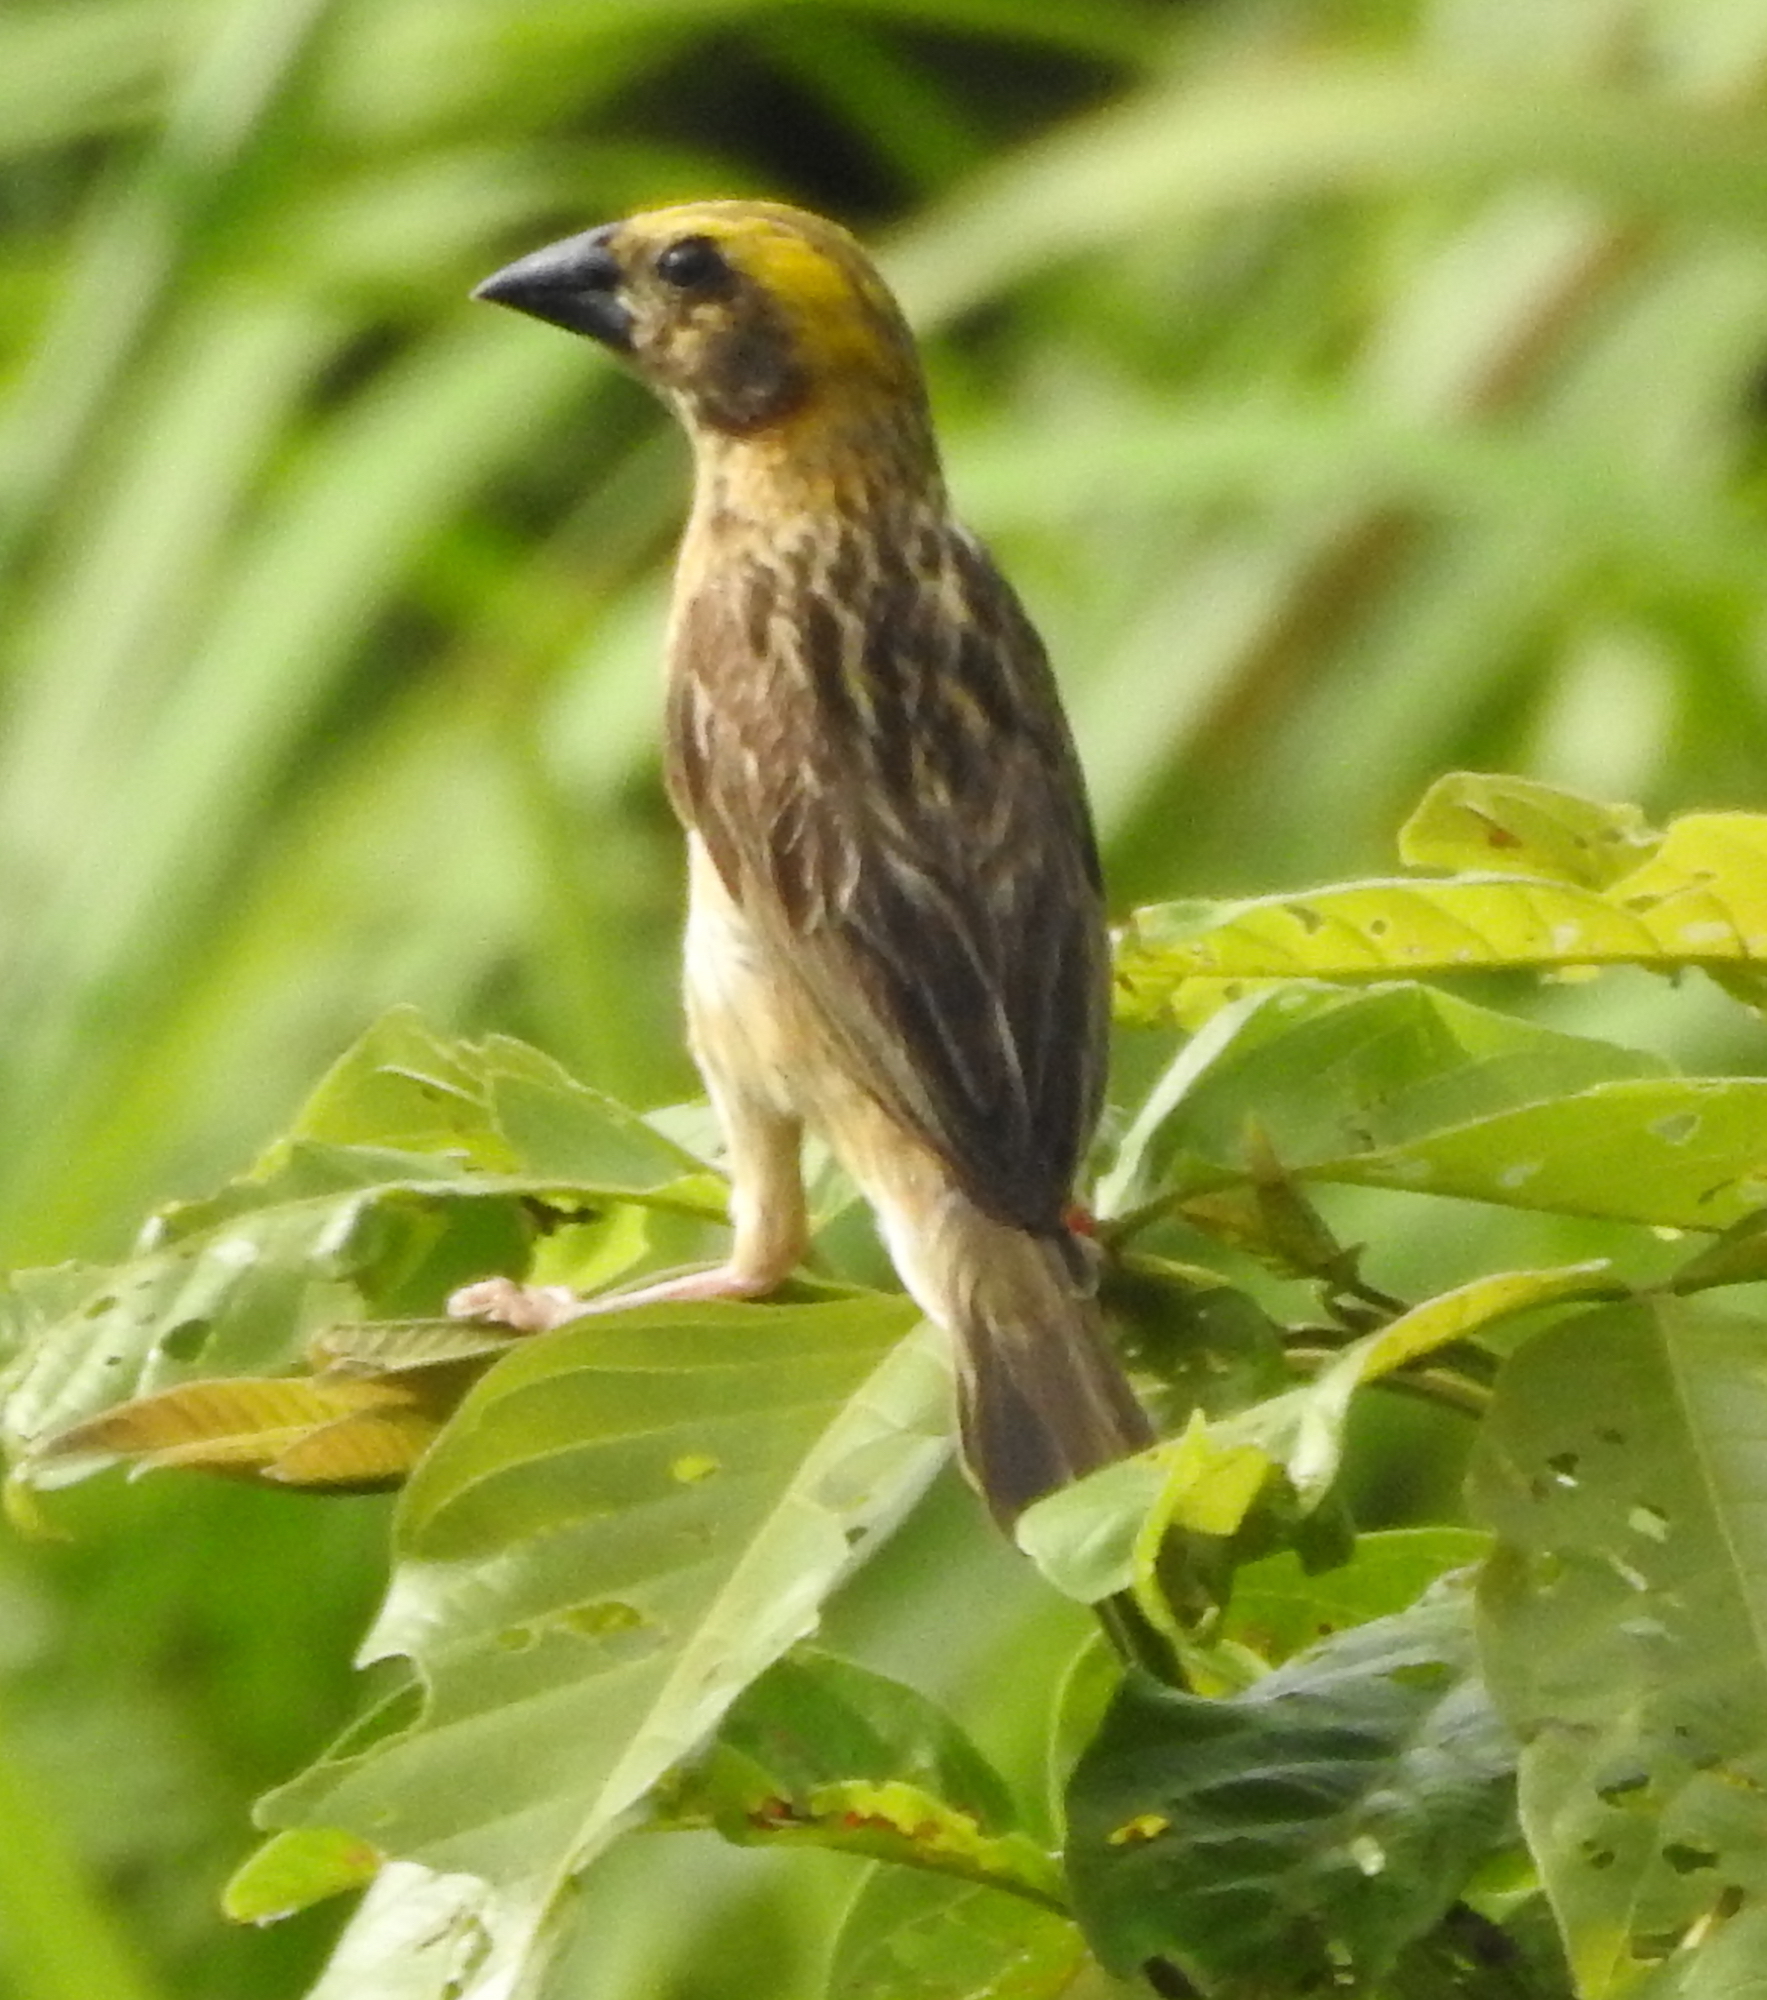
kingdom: Animalia
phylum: Chordata
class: Aves
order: Passeriformes
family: Ploceidae
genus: Ploceus
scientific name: Ploceus philippinus
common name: Baya weaver
